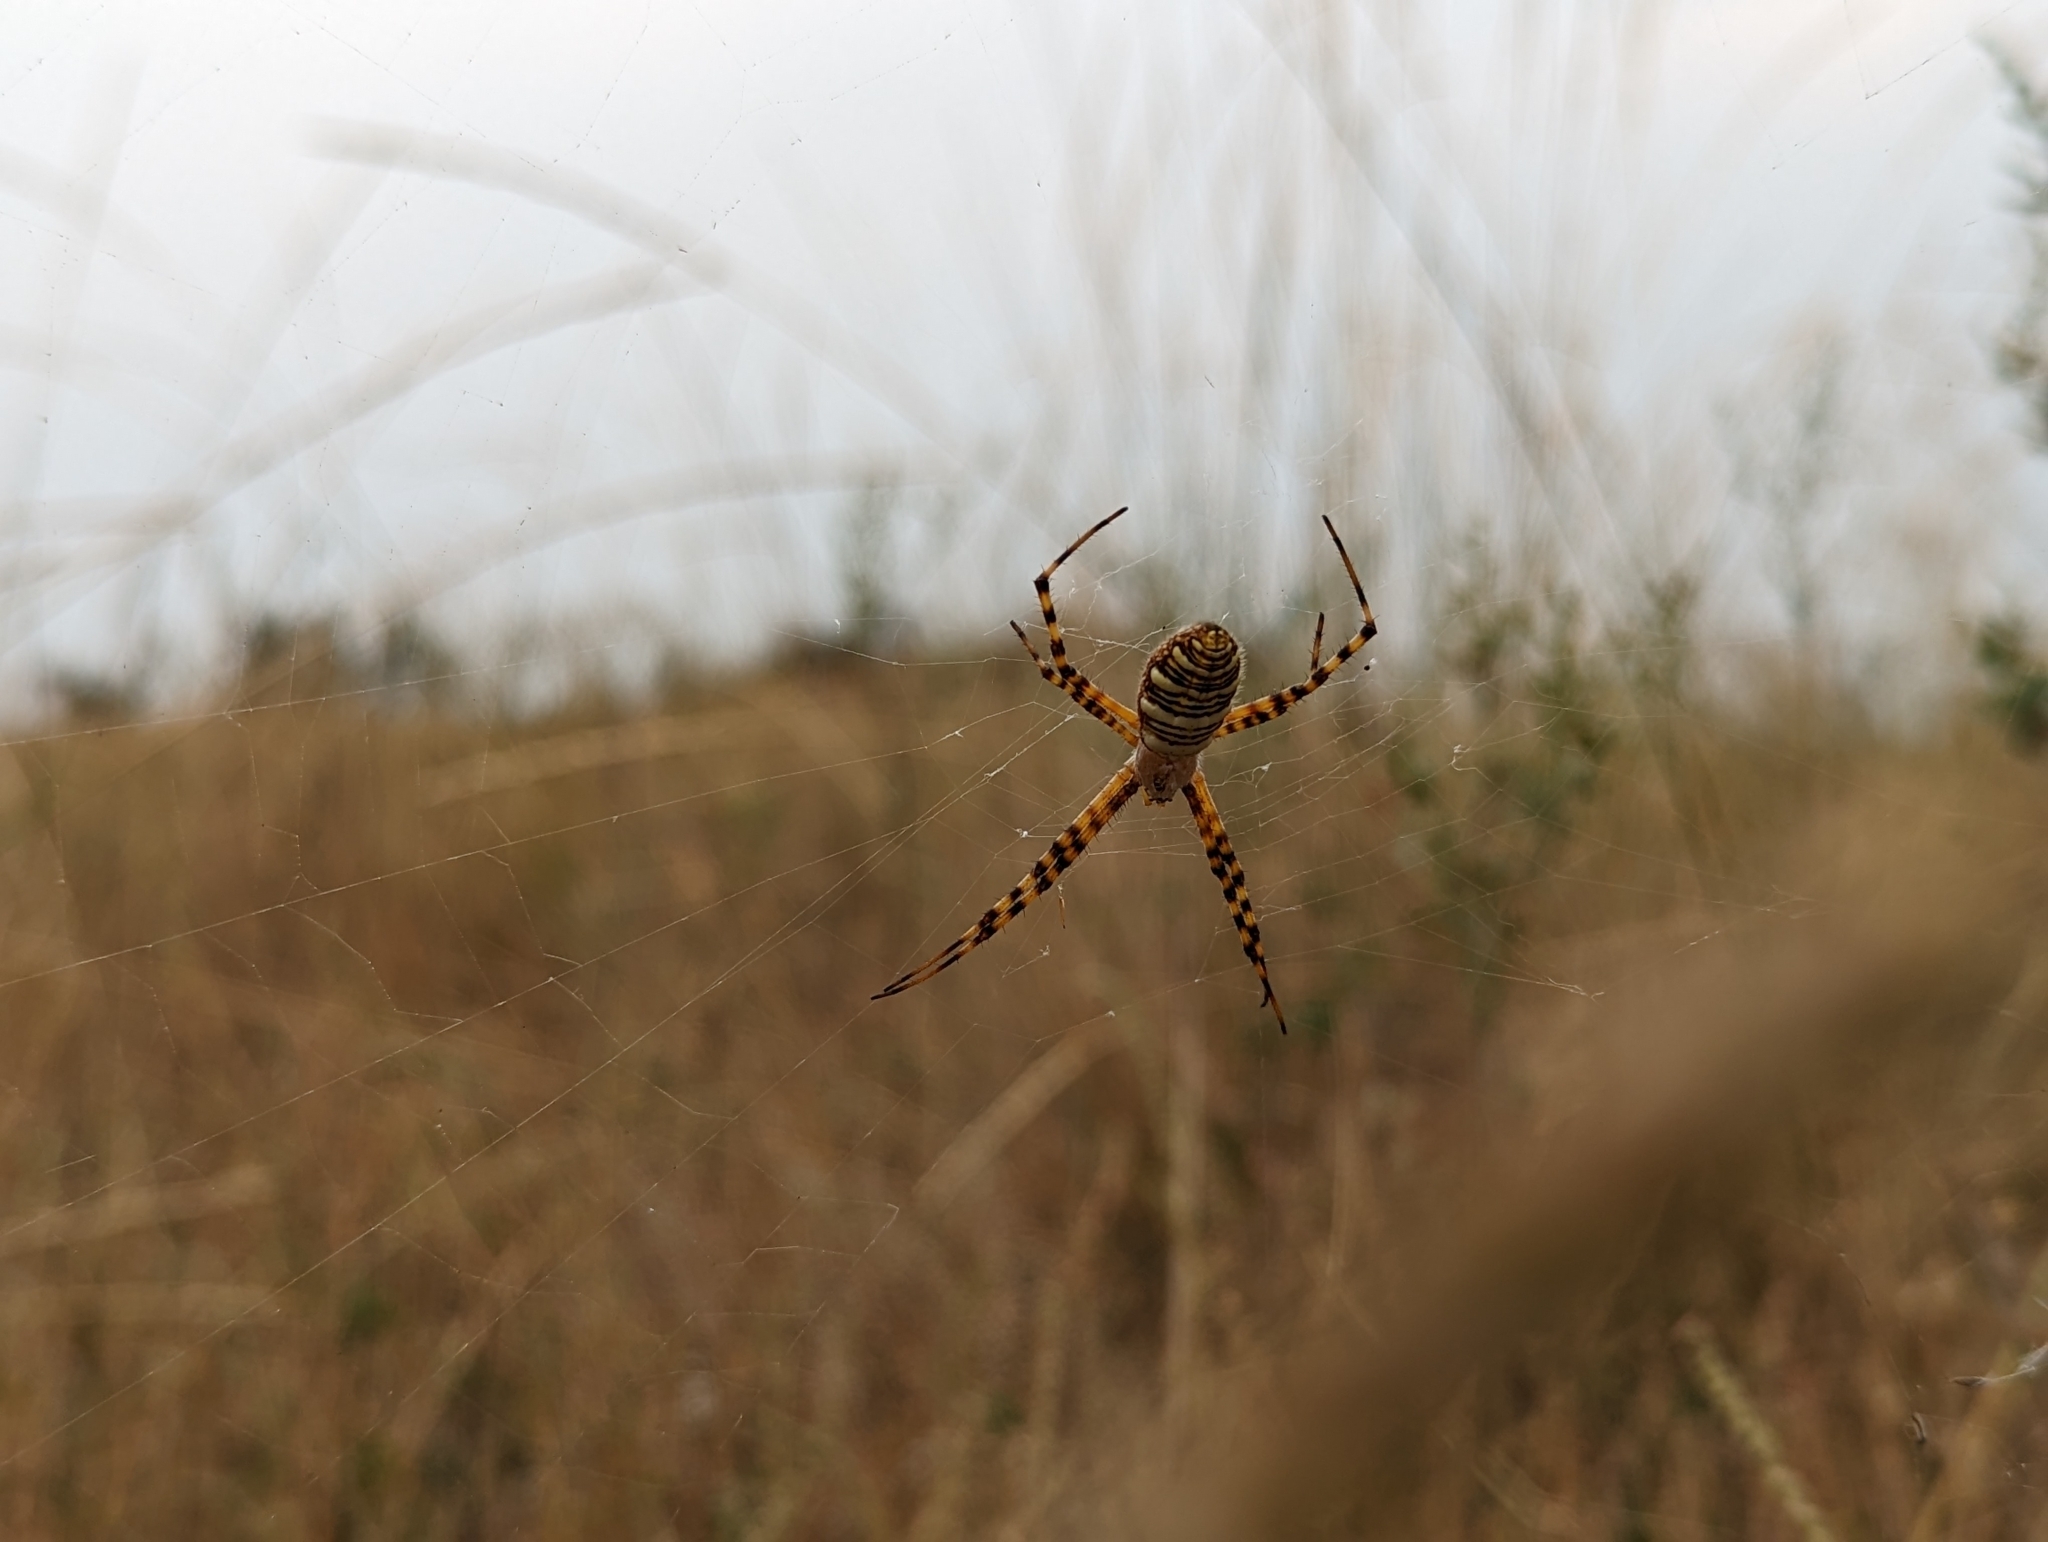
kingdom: Animalia
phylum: Arthropoda
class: Arachnida
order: Araneae
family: Araneidae
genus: Argiope
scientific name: Argiope trifasciata
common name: Banded garden spider
